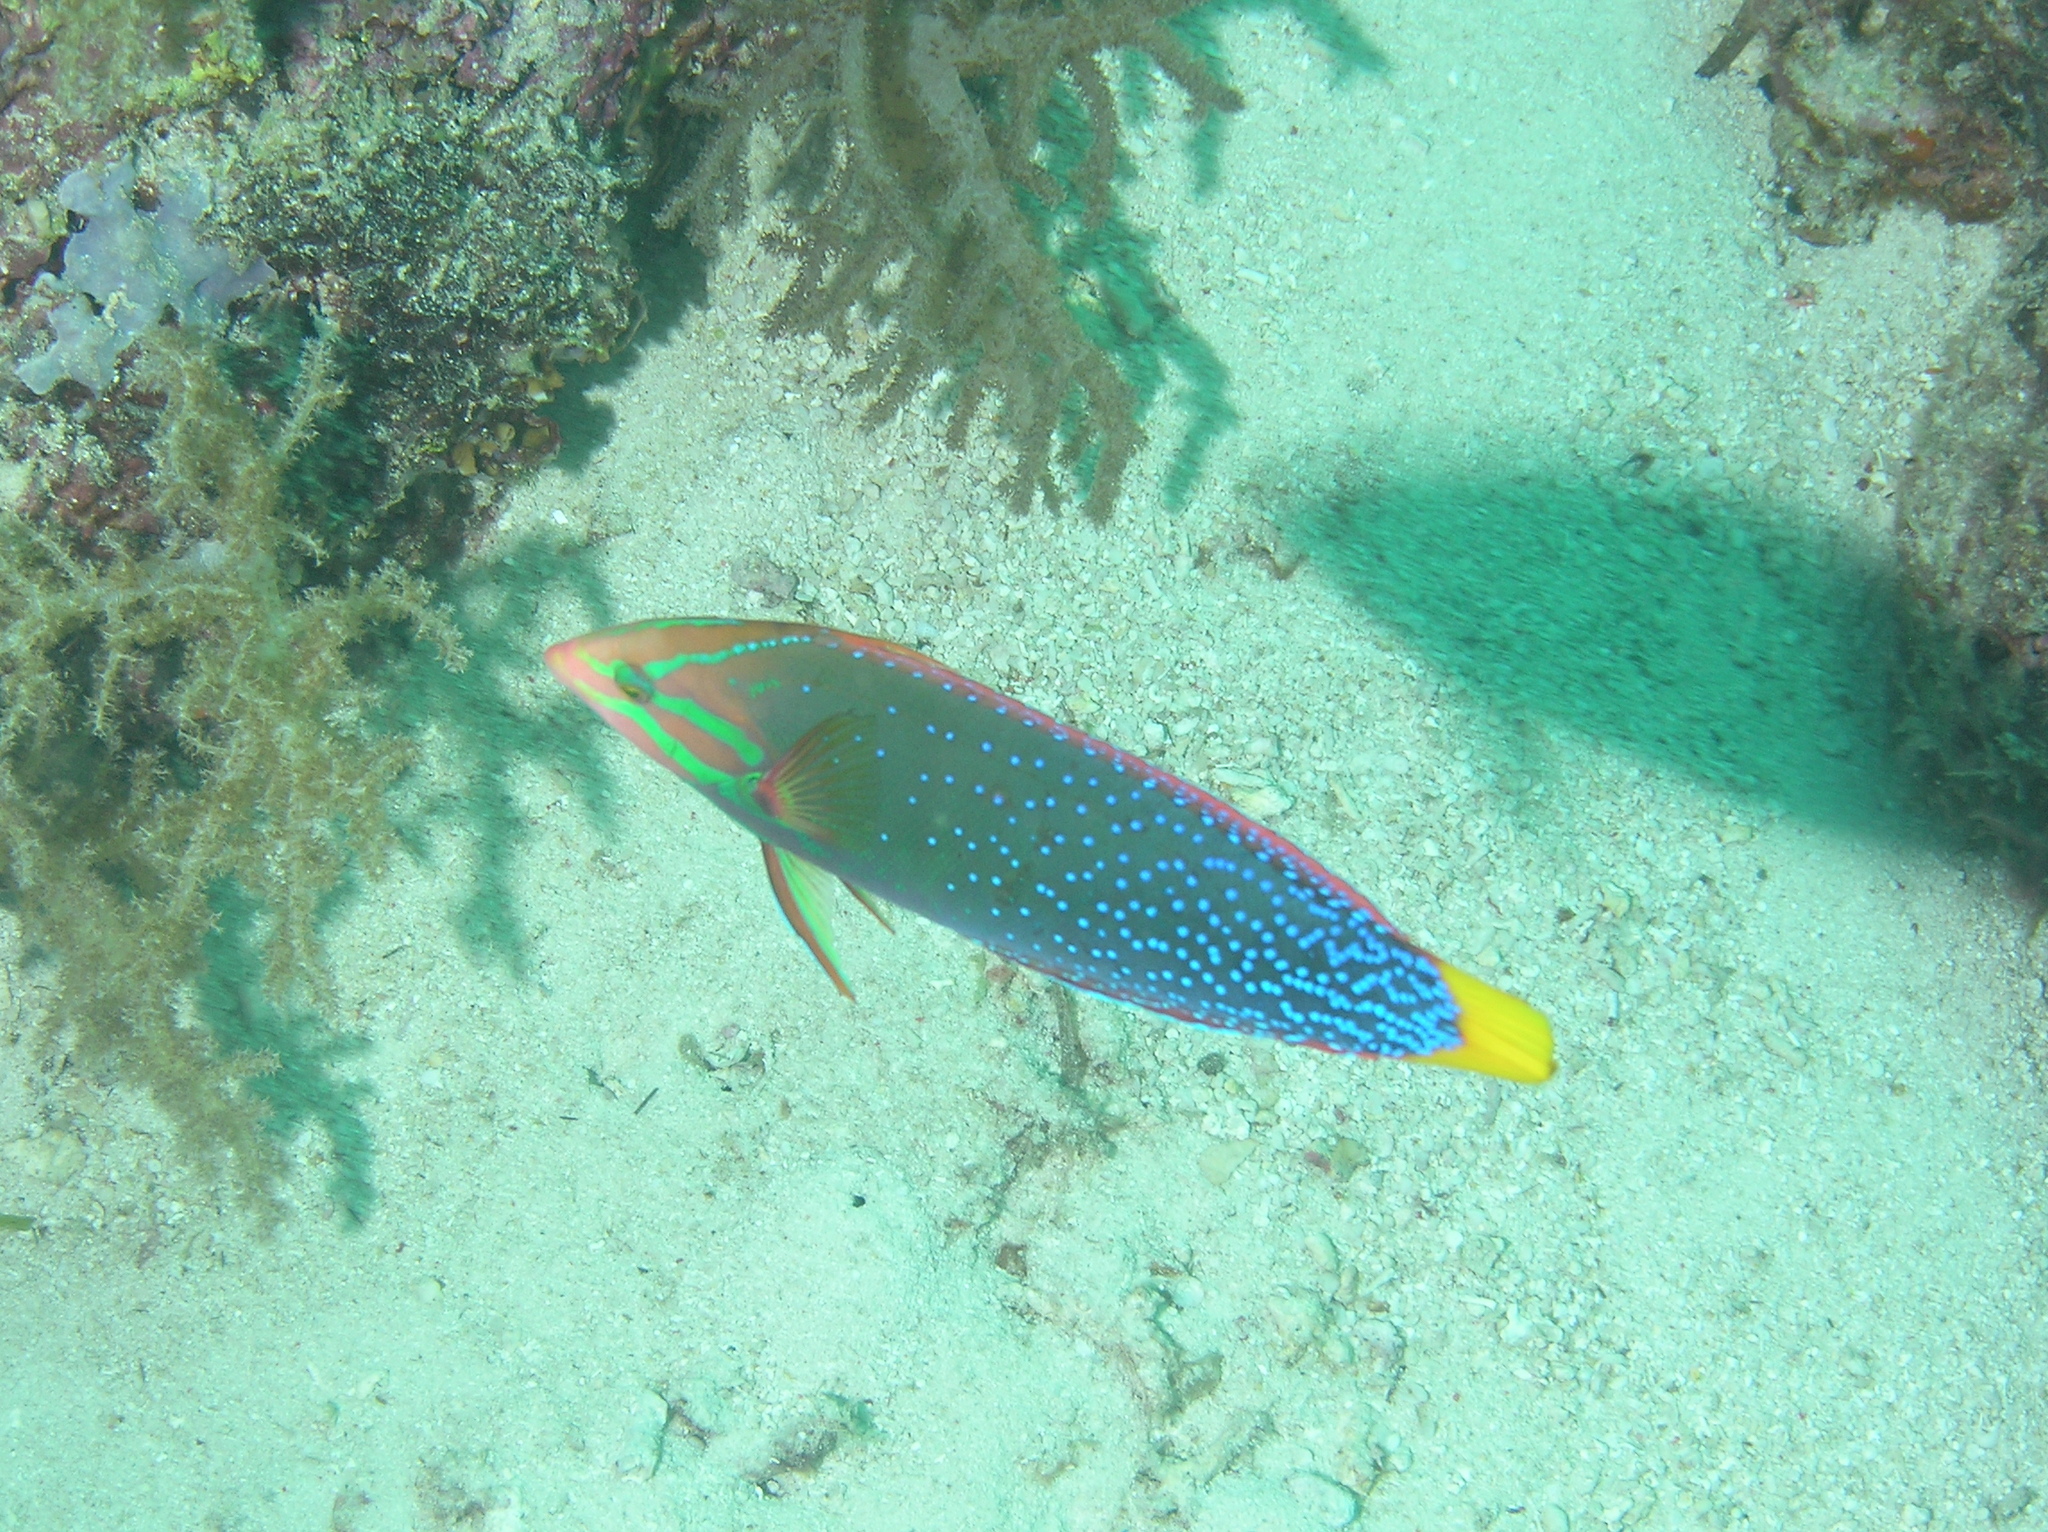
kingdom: Animalia
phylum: Chordata
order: Perciformes
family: Labridae
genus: Coris
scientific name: Coris gaimard
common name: Yellowtail coris
